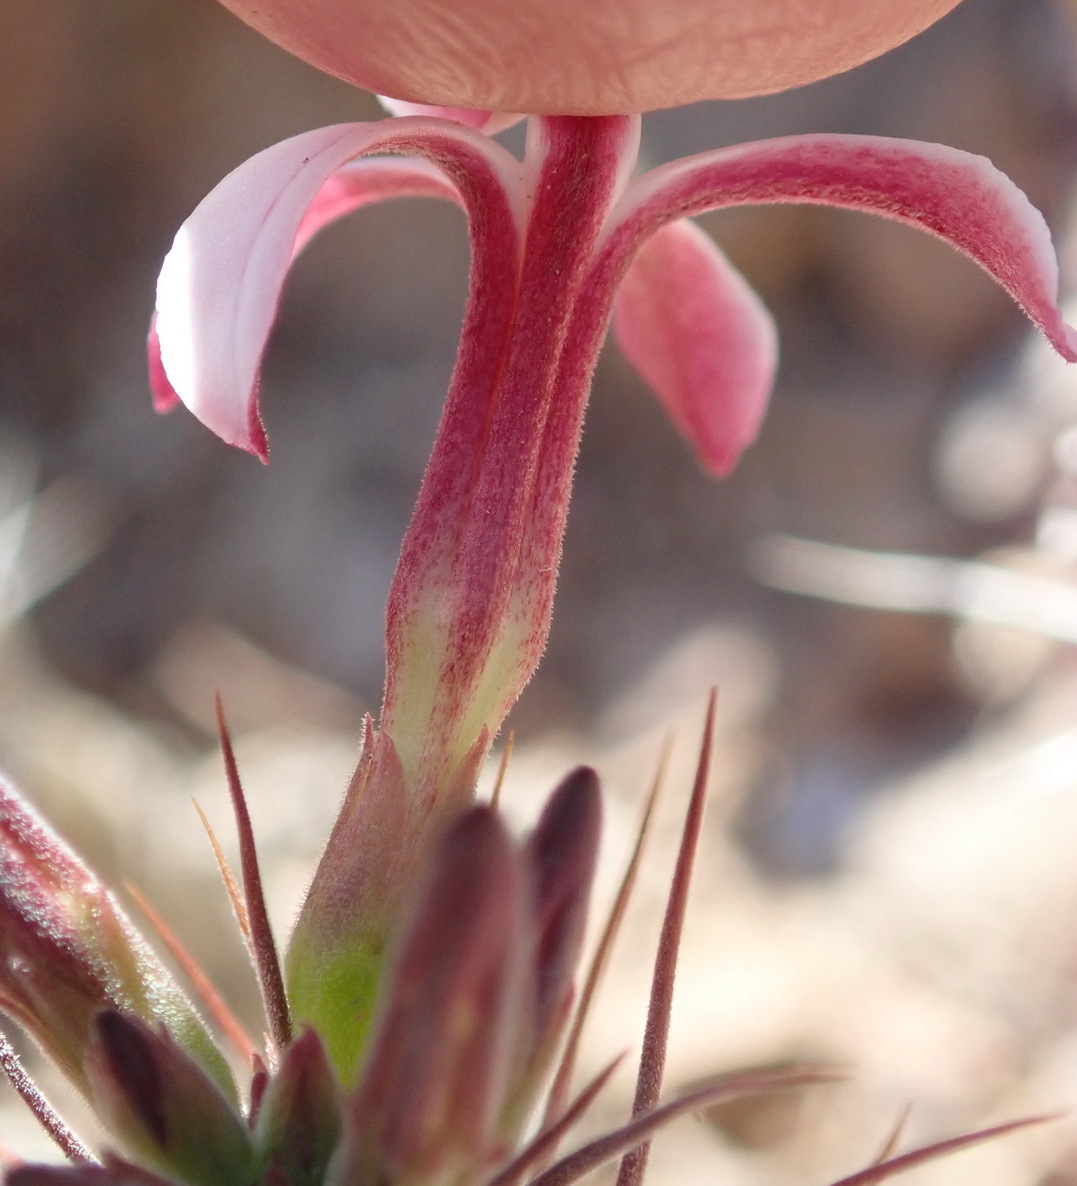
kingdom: Plantae
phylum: Tracheophyta
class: Magnoliopsida
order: Gentianales
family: Apocynaceae
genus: Pachypodium
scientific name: Pachypodium succulentum
